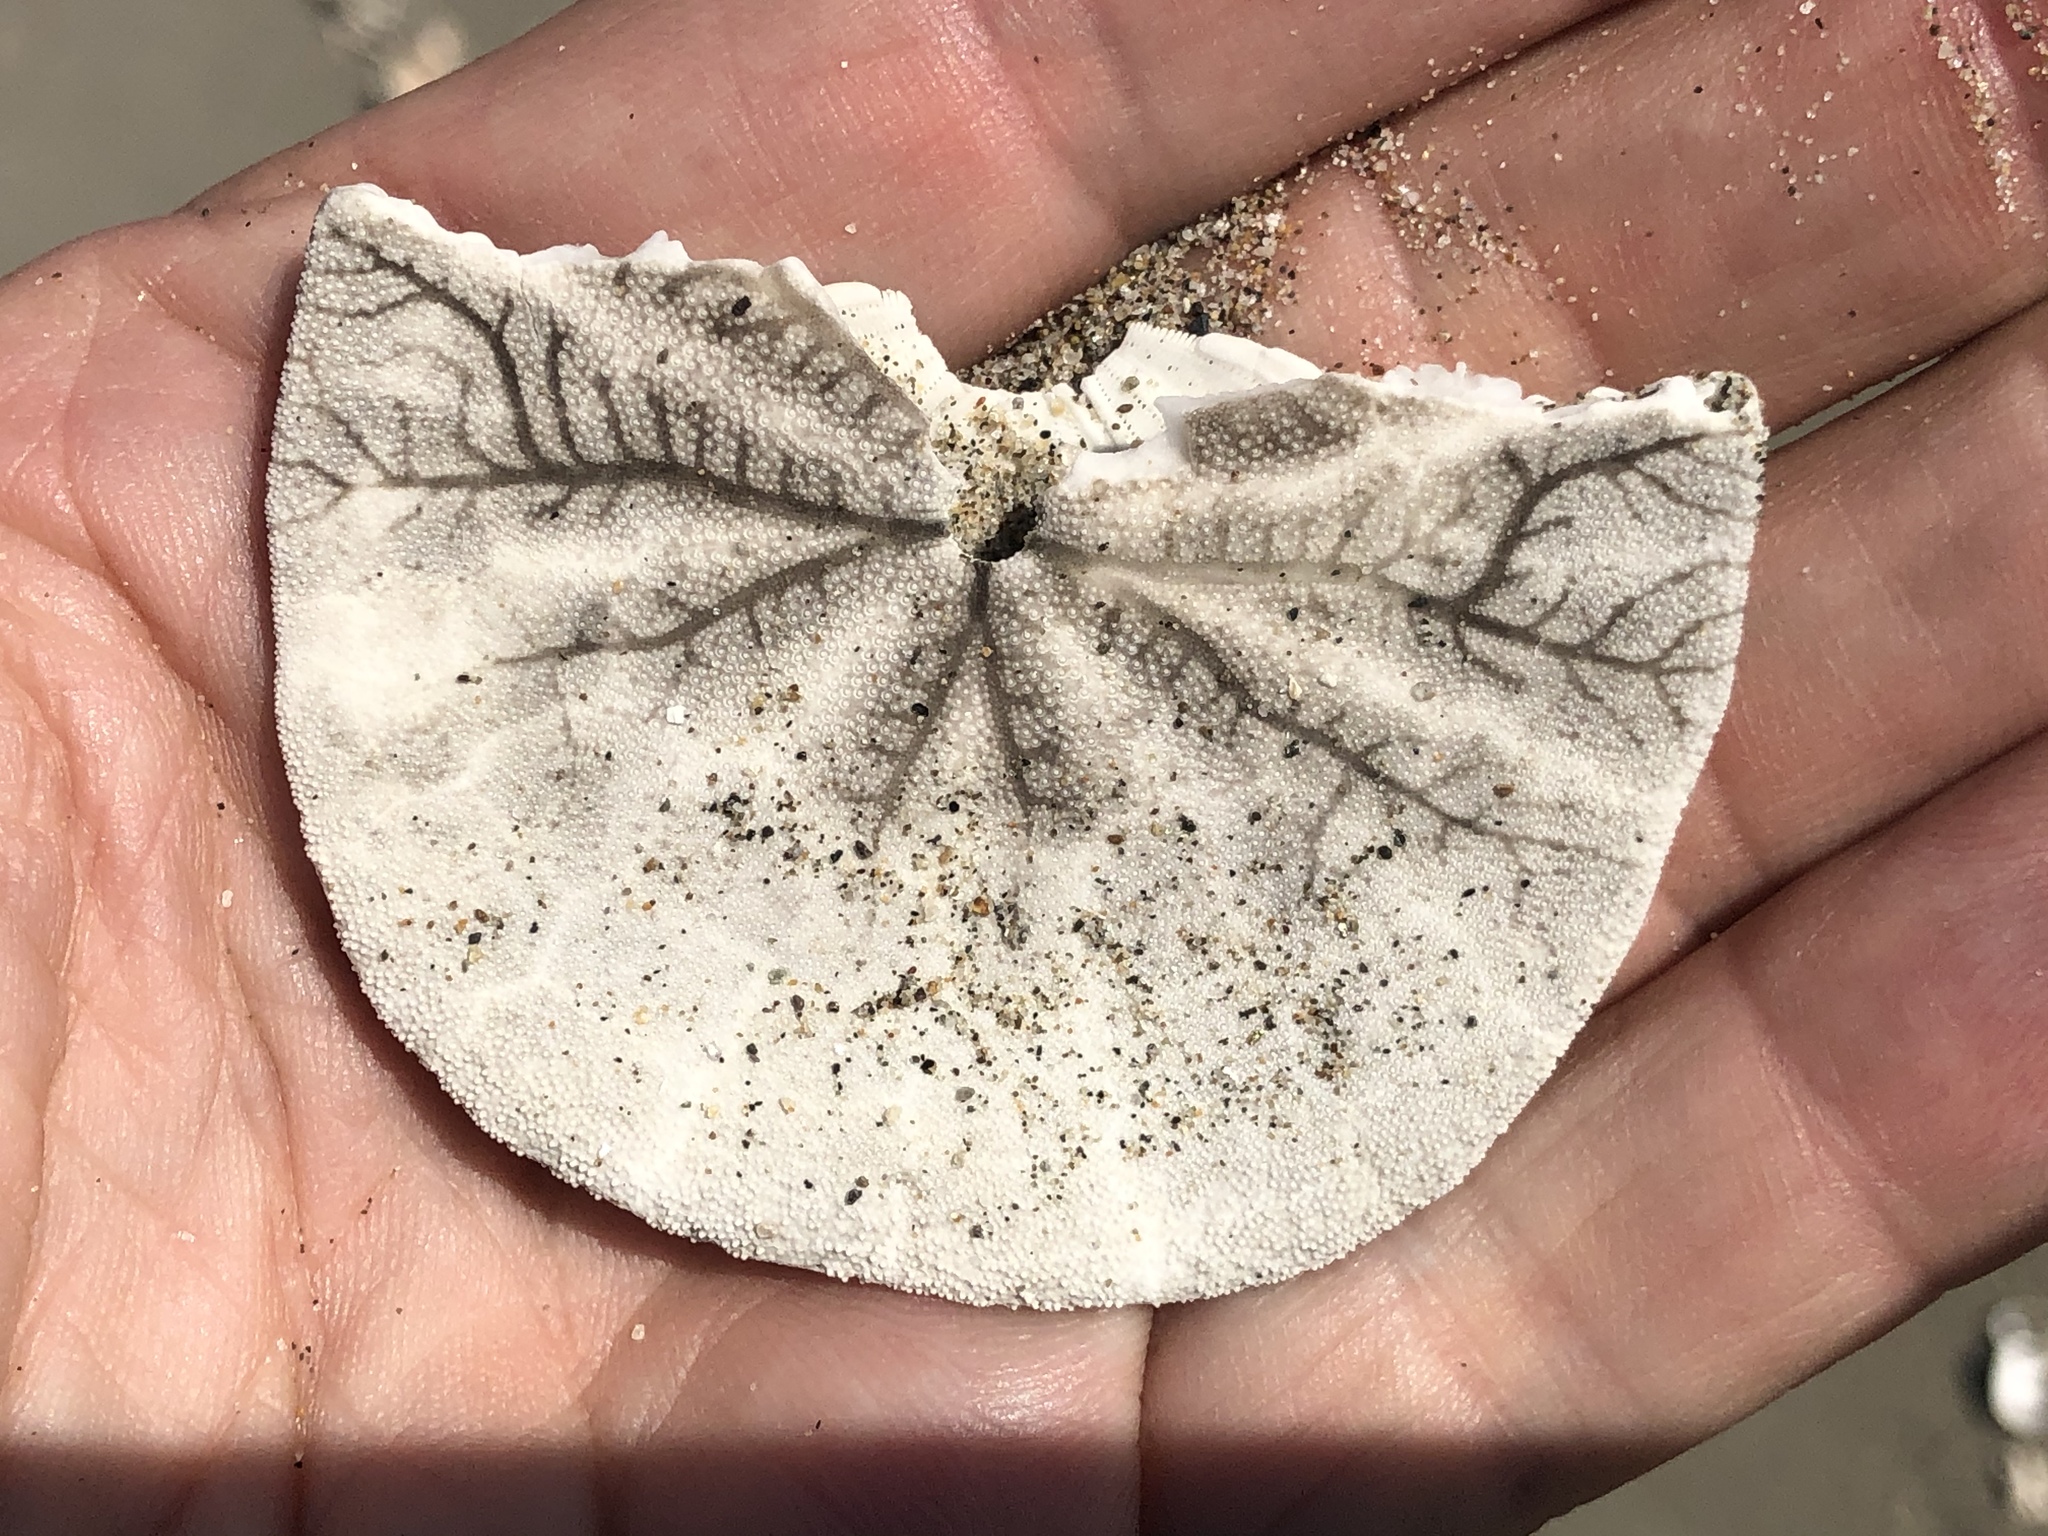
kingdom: Animalia
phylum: Echinodermata
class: Echinoidea
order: Echinolampadacea
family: Dendrasteridae
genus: Dendraster
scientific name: Dendraster excentricus
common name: Eccentric sand dollar sea urchin
